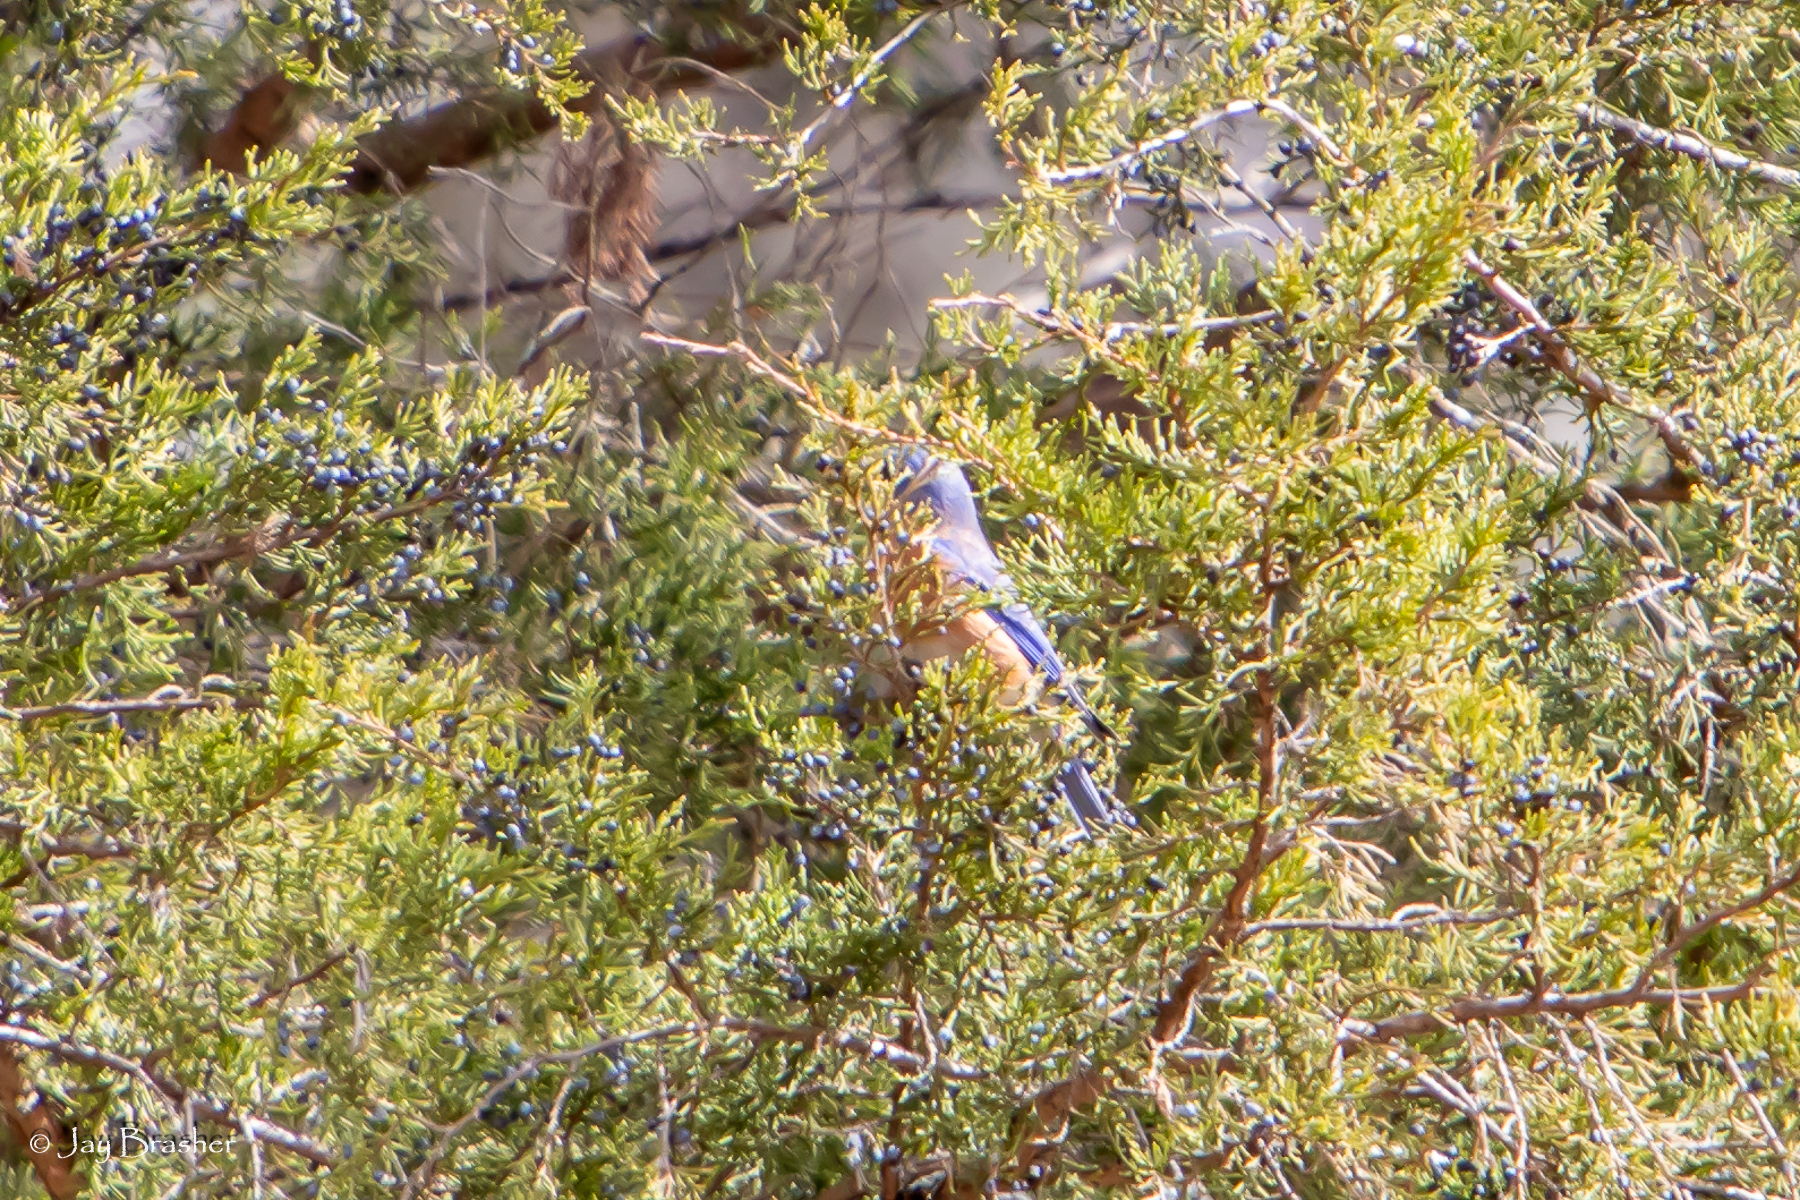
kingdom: Animalia
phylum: Chordata
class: Aves
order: Passeriformes
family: Turdidae
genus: Sialia
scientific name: Sialia sialis
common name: Eastern bluebird
